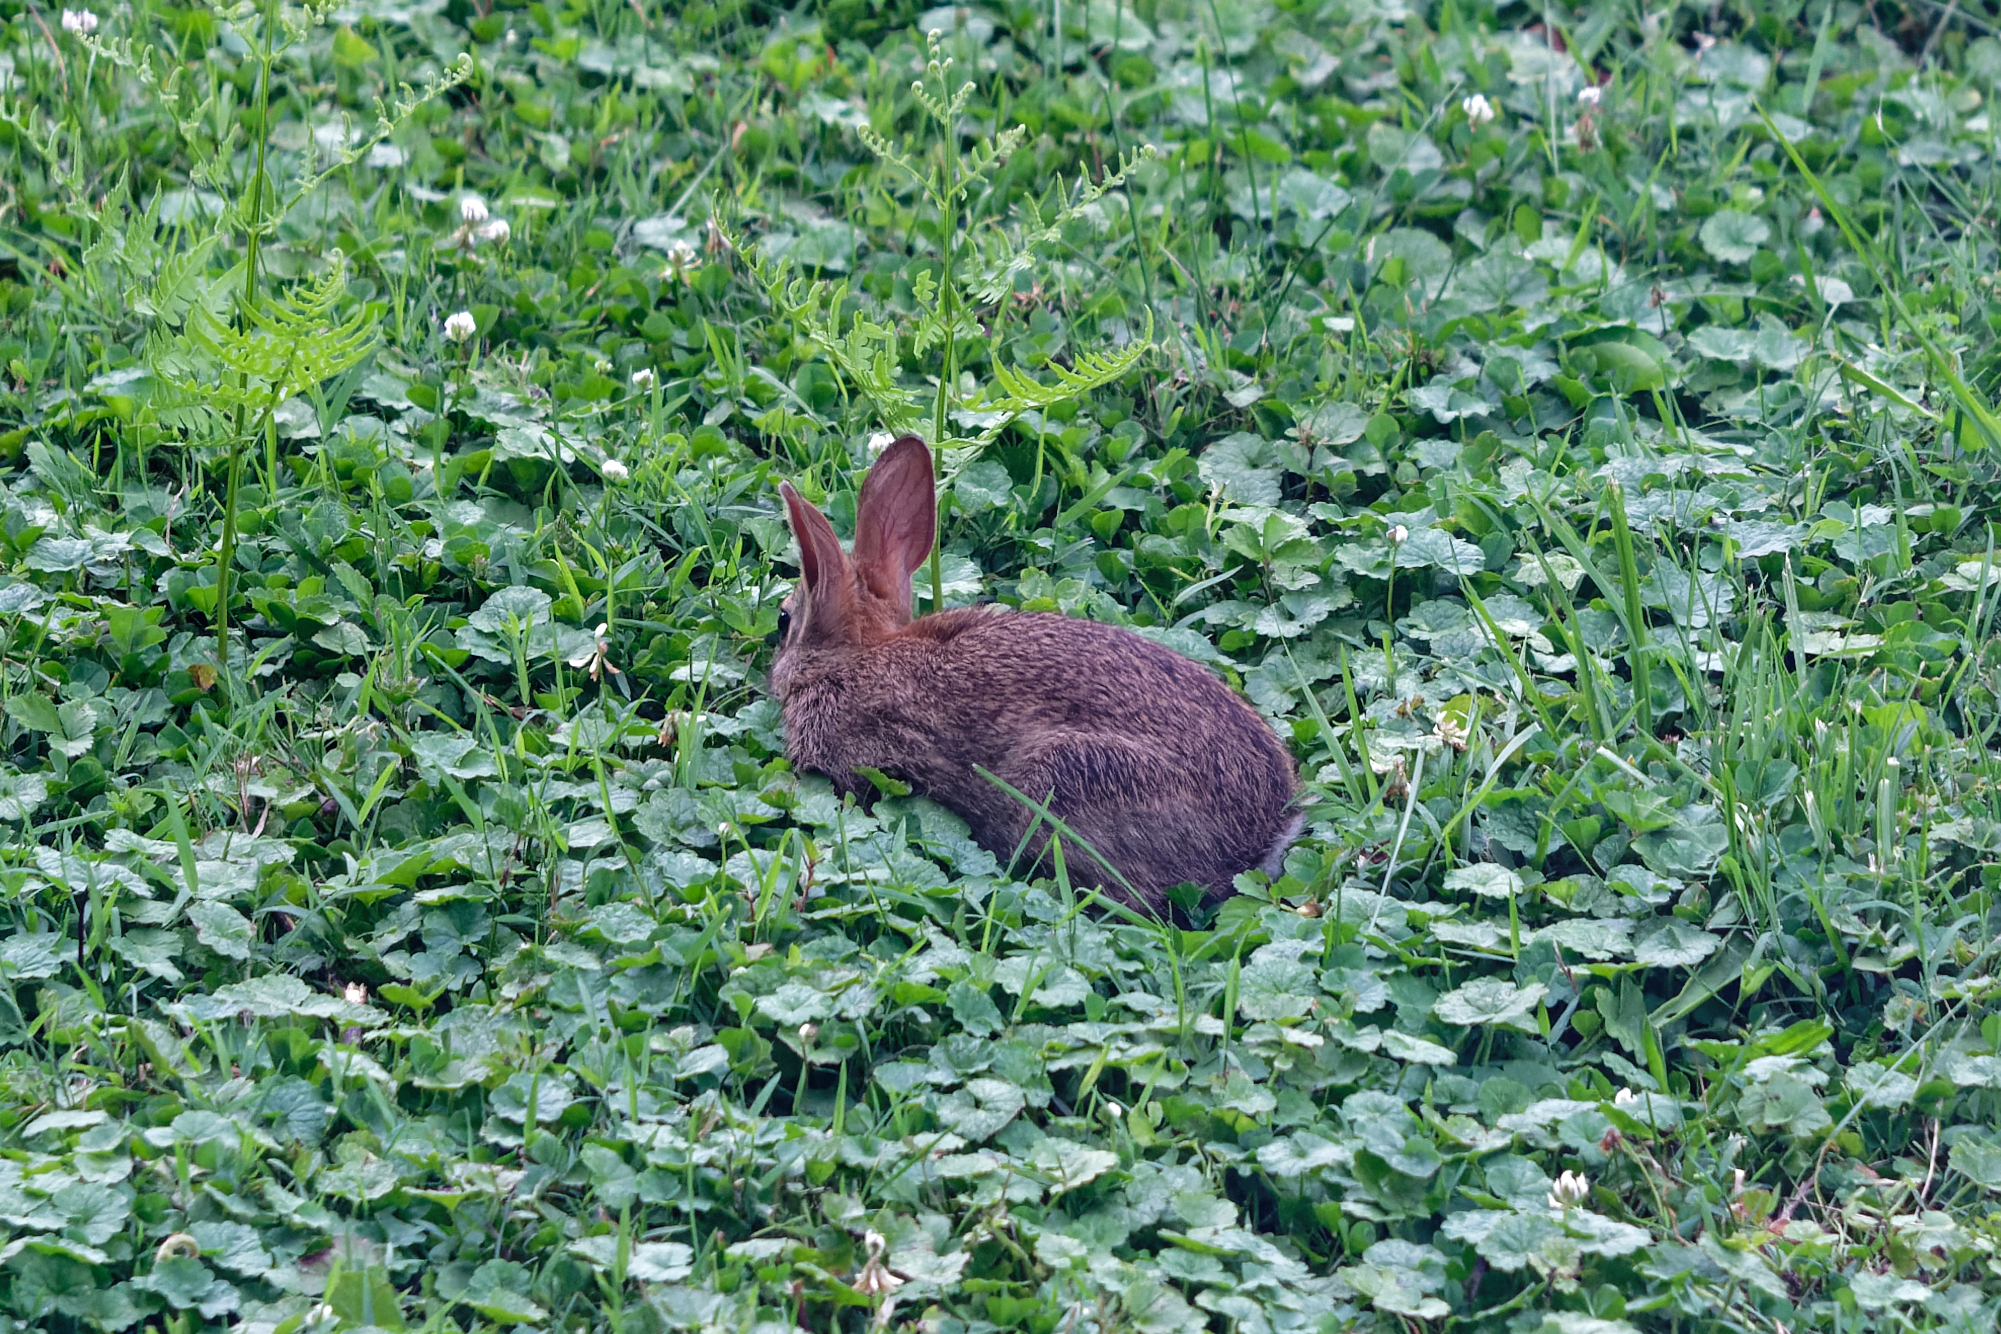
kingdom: Animalia
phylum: Chordata
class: Mammalia
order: Lagomorpha
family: Leporidae
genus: Sylvilagus
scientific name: Sylvilagus floridanus
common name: Eastern cottontail
